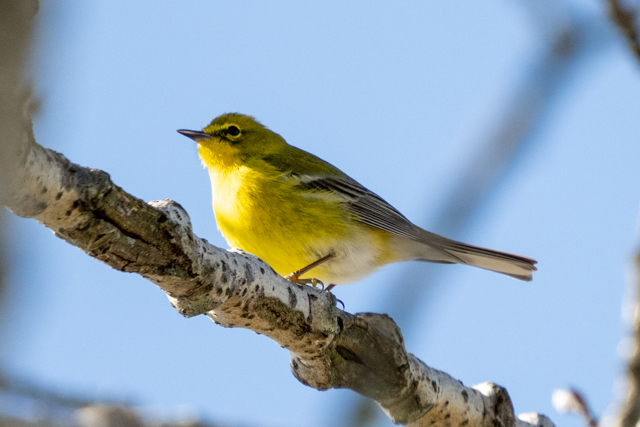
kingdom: Animalia
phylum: Chordata
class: Aves
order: Passeriformes
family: Parulidae
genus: Setophaga
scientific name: Setophaga pinus
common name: Pine warbler
